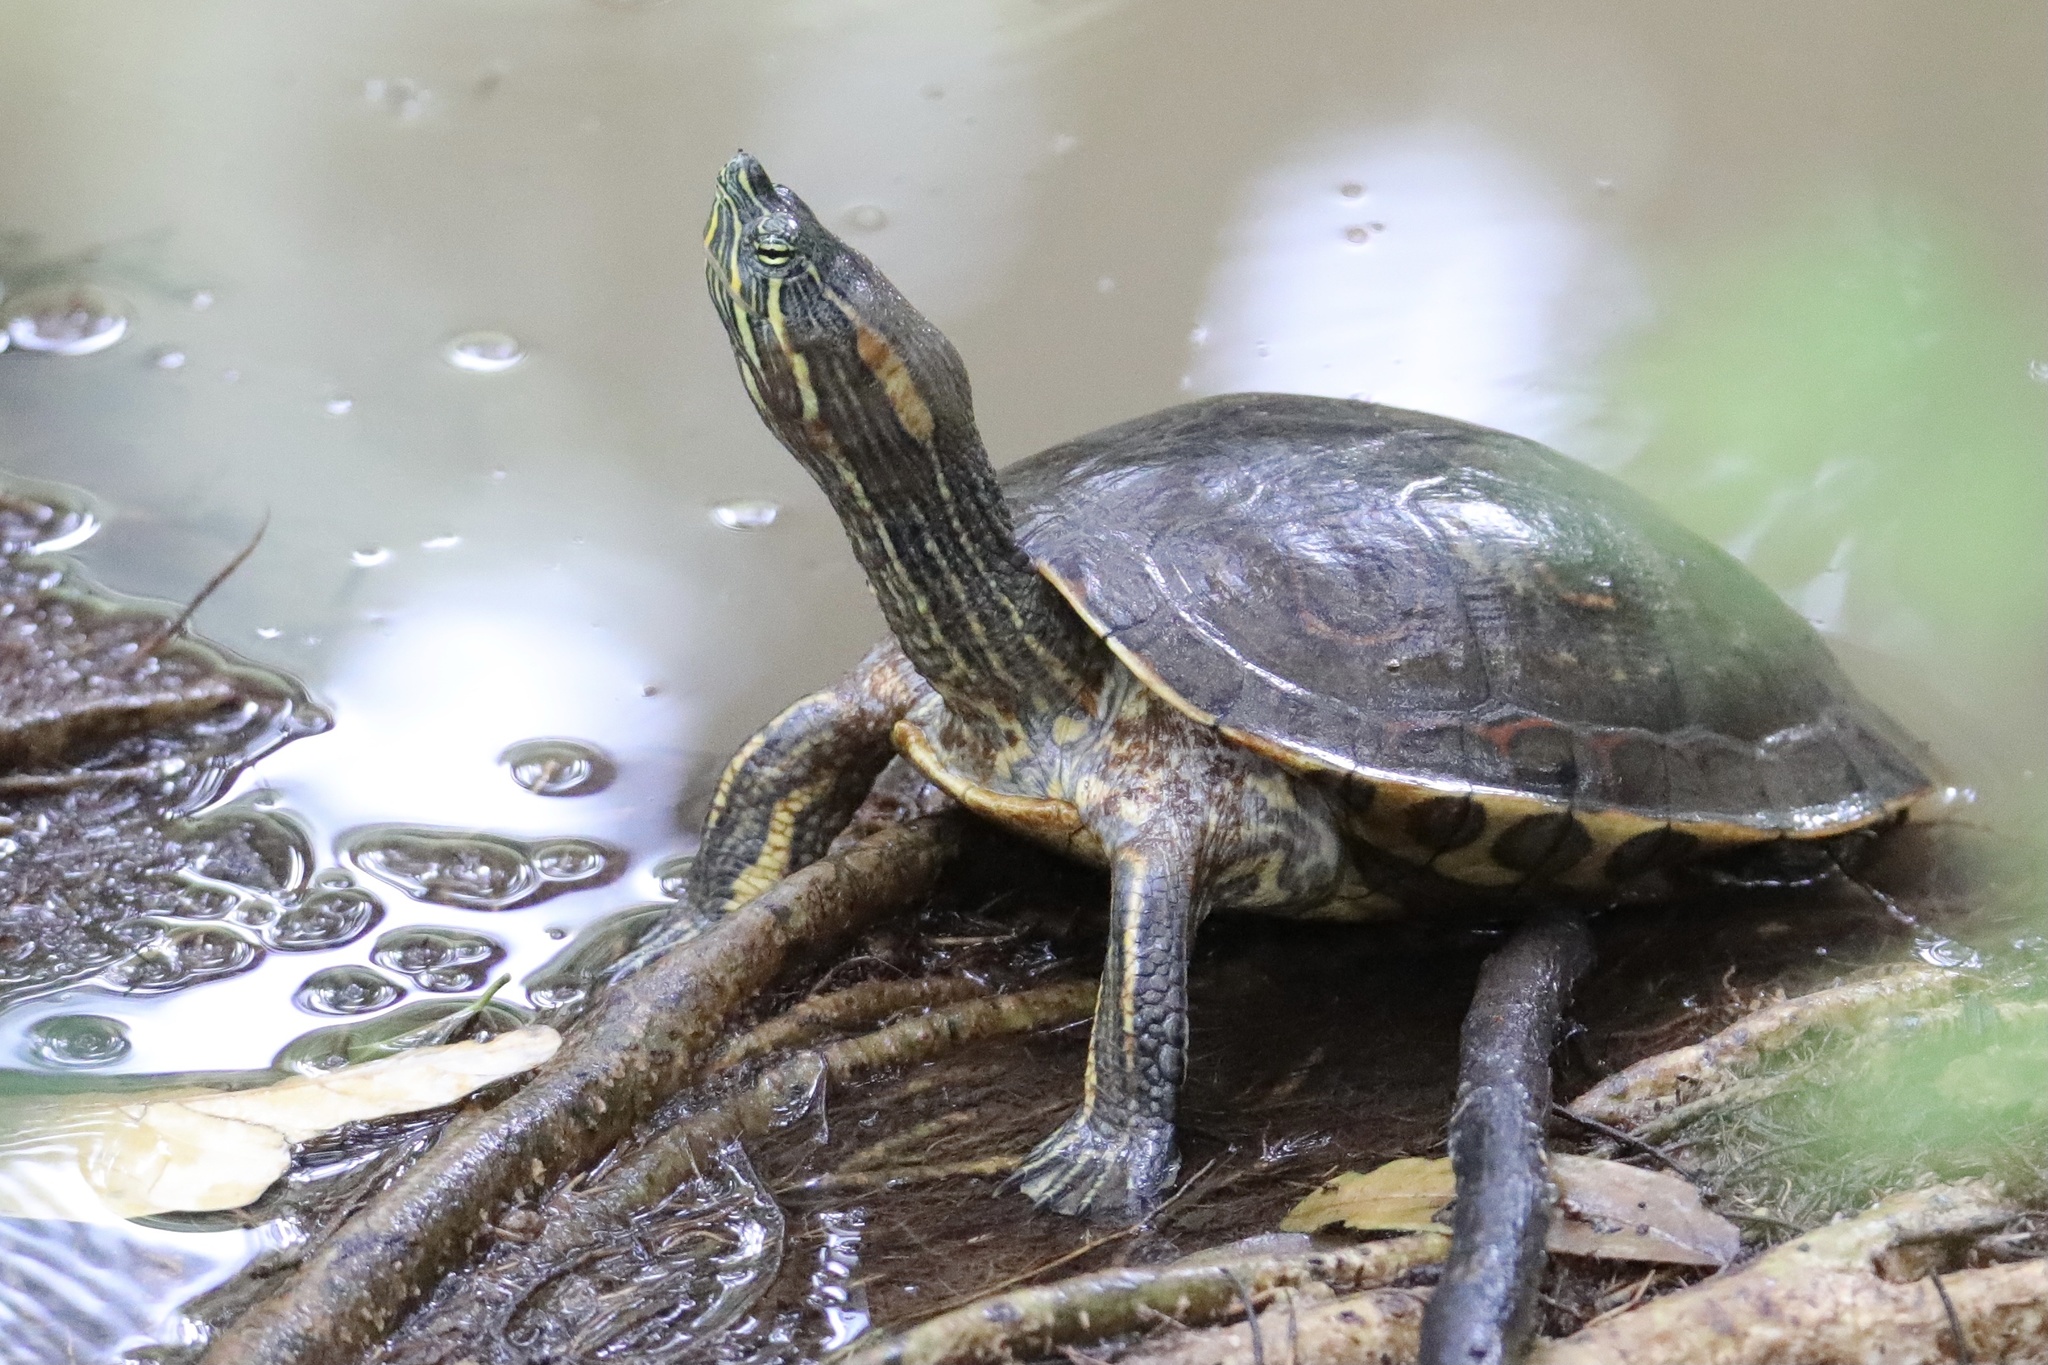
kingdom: Animalia
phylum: Chordata
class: Testudines
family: Emydidae
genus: Trachemys
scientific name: Trachemys venusta
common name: Mesoamerican slider
